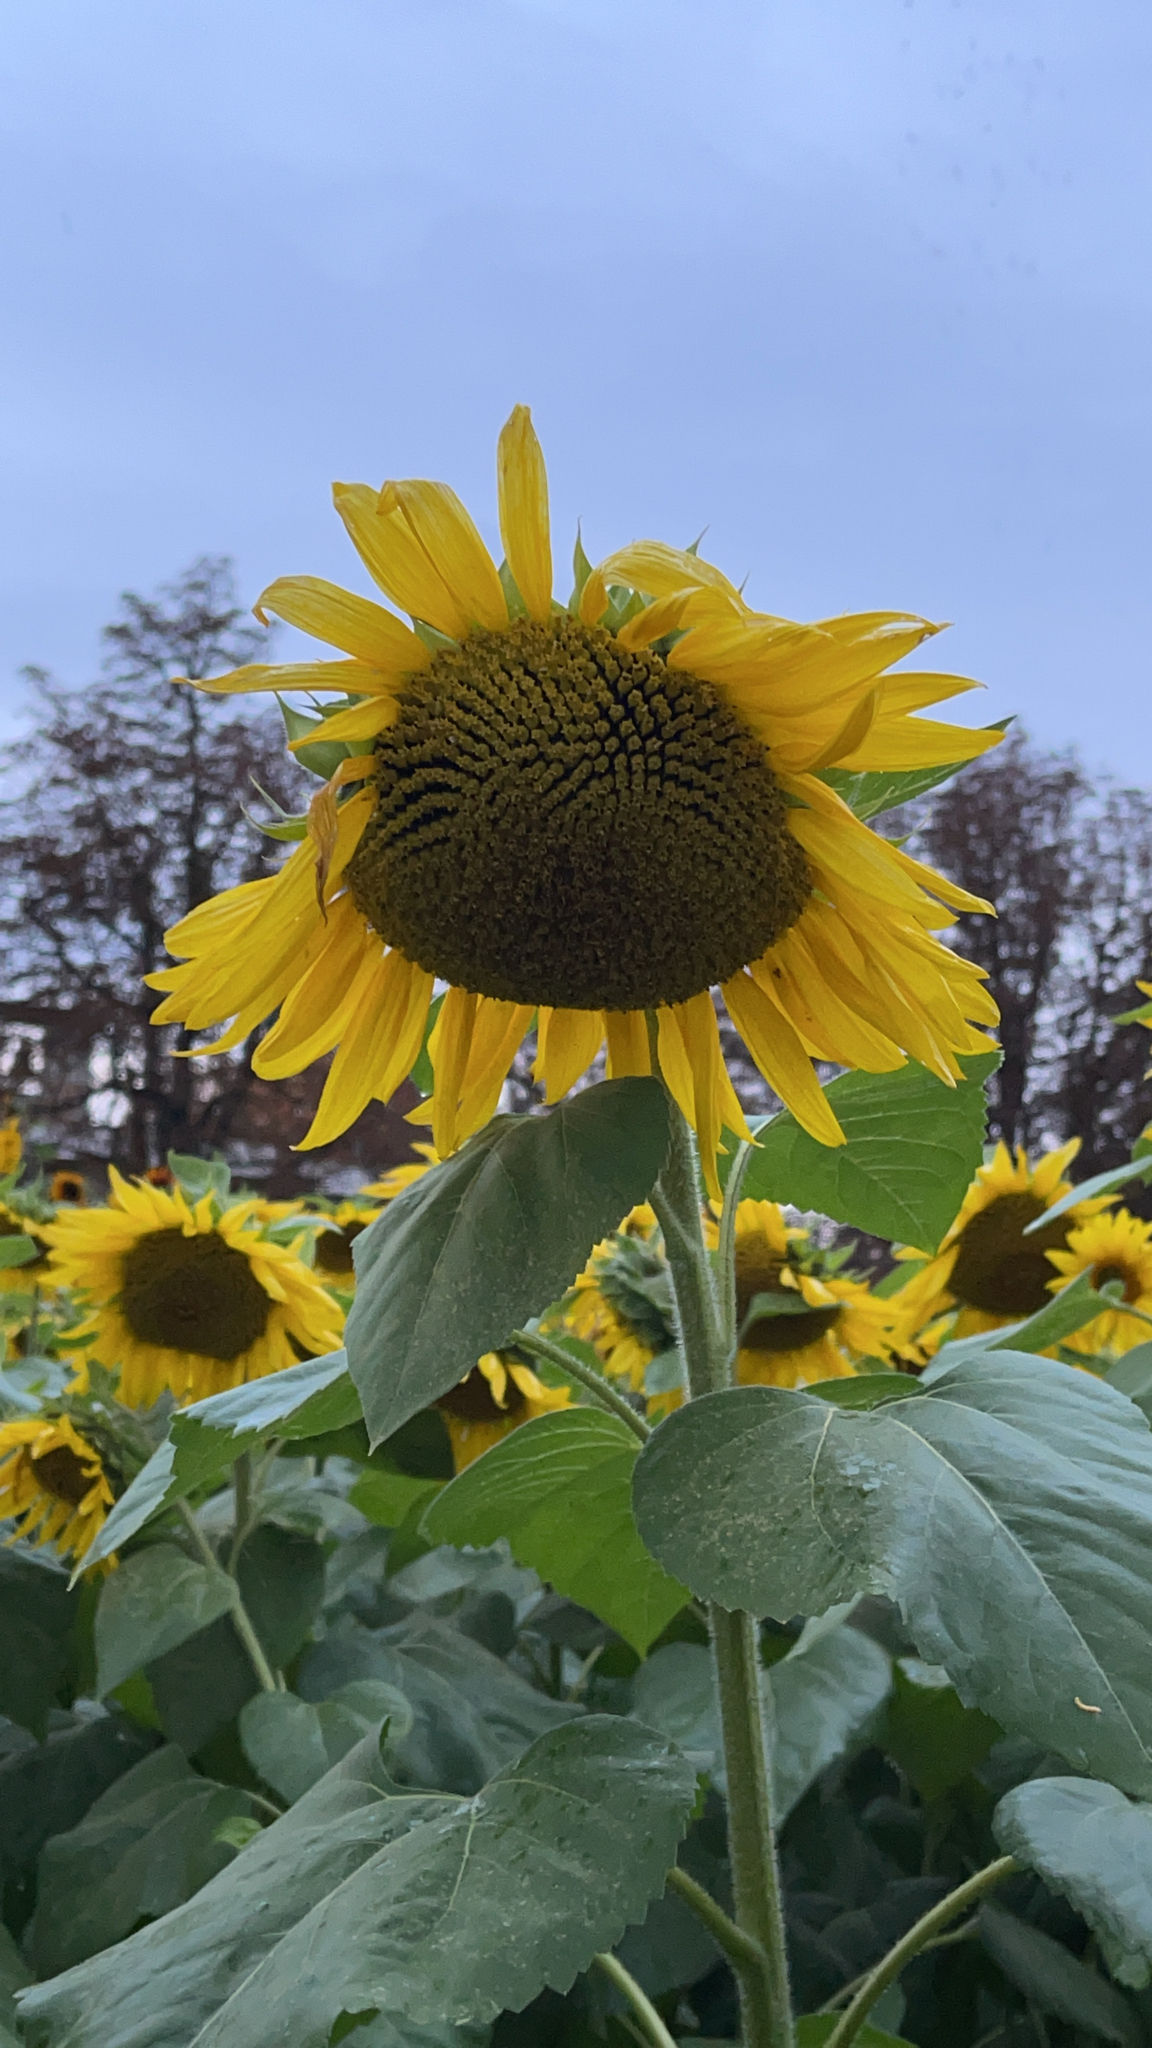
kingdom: Plantae
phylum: Tracheophyta
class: Magnoliopsida
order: Asterales
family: Asteraceae
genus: Helianthus
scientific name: Helianthus annuus
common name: Sunflower
